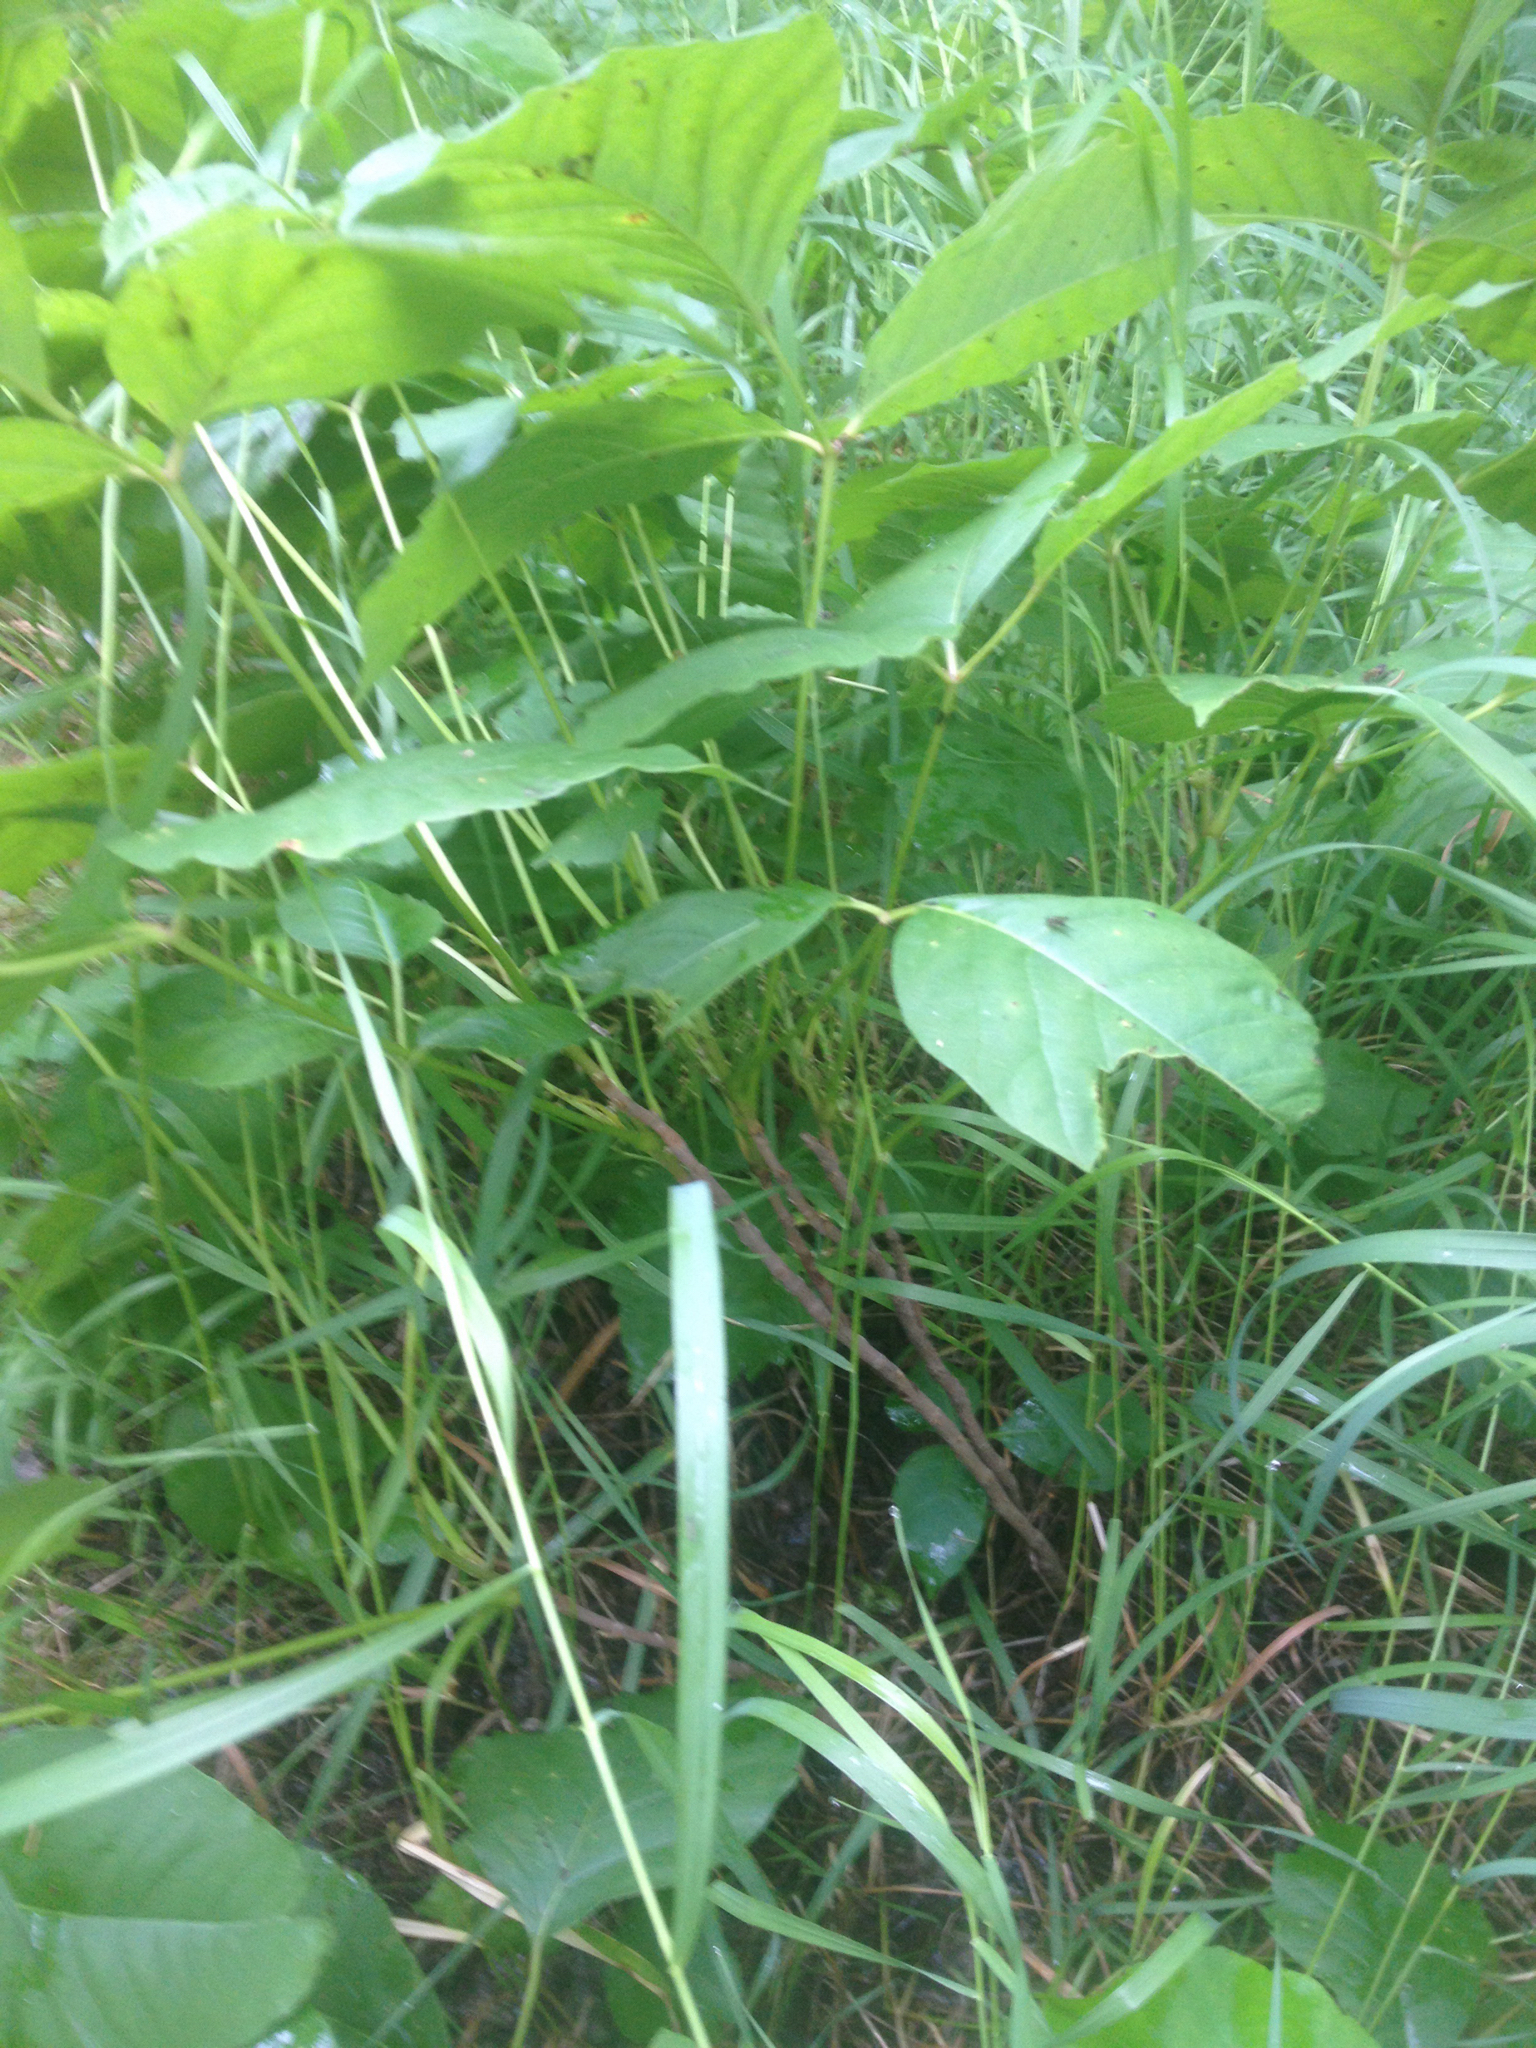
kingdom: Plantae
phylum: Tracheophyta
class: Magnoliopsida
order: Sapindales
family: Anacardiaceae
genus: Toxicodendron
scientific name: Toxicodendron rydbergii
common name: Rydberg's poison-ivy
